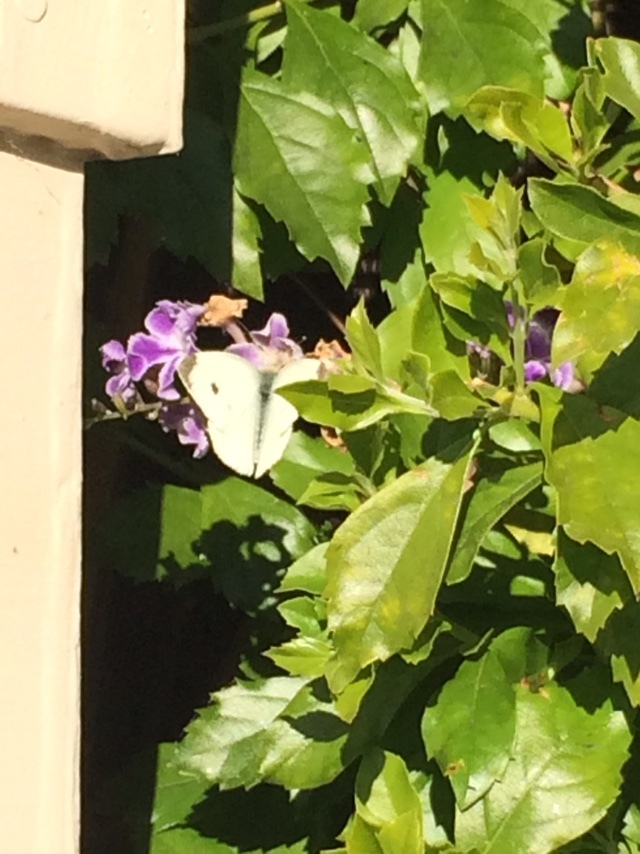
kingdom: Animalia
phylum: Arthropoda
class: Insecta
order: Lepidoptera
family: Pieridae
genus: Pieris
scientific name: Pieris rapae
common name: Small white
